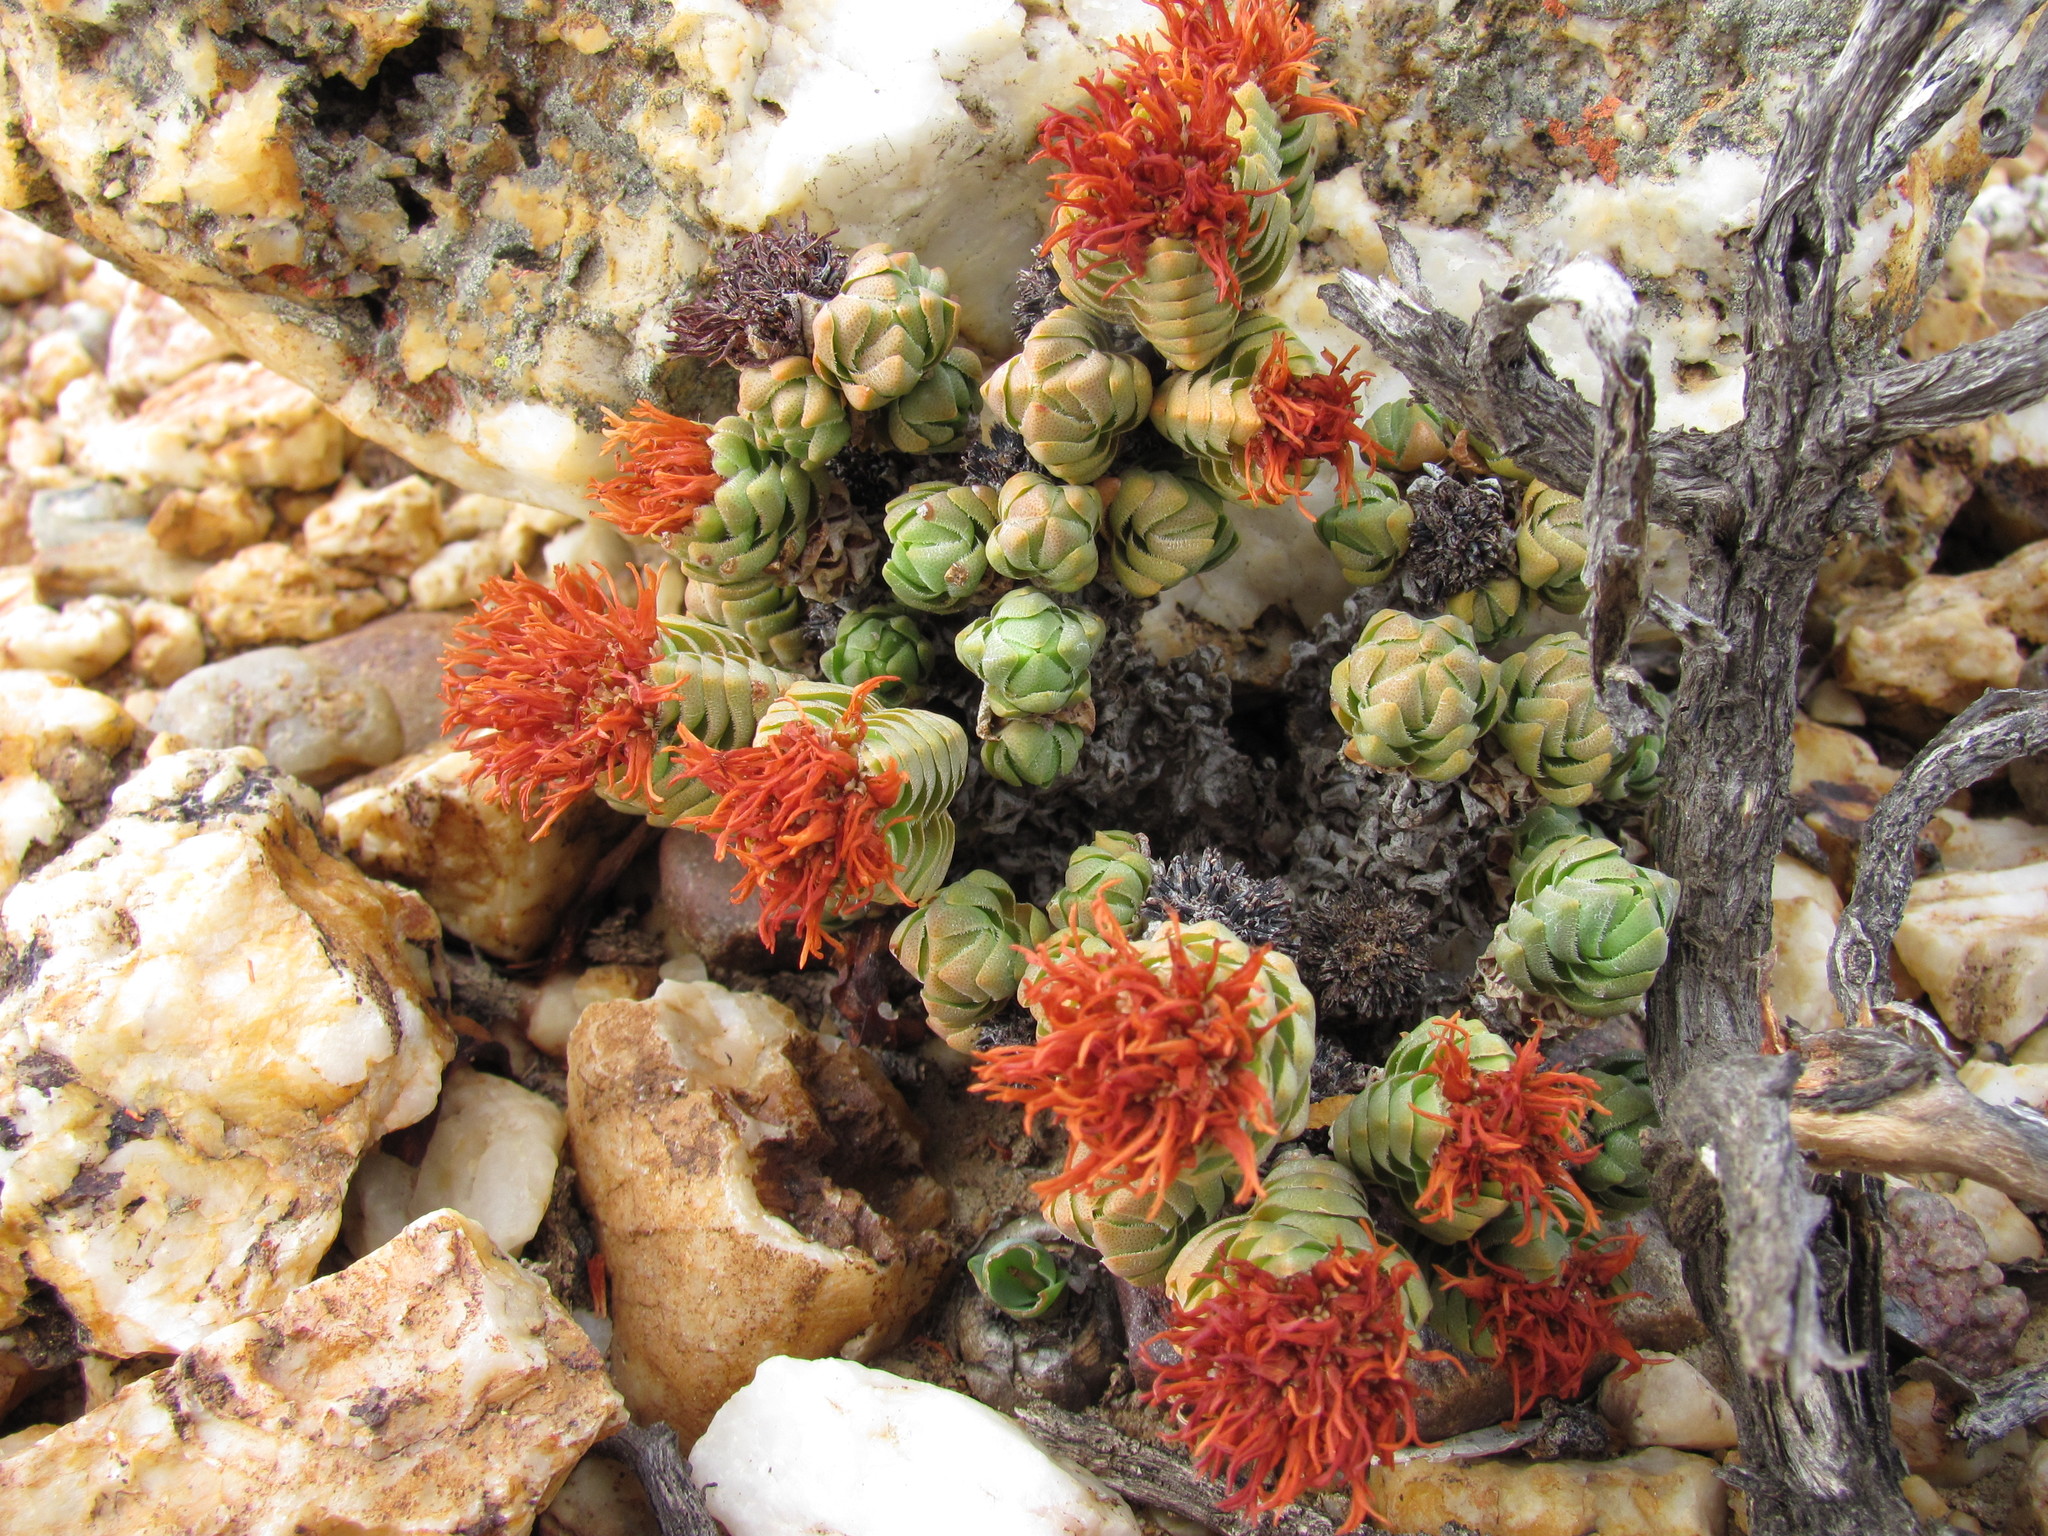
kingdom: Plantae
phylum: Tracheophyta
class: Magnoliopsida
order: Saxifragales
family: Crassulaceae
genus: Crassula
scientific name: Crassula columnaris
